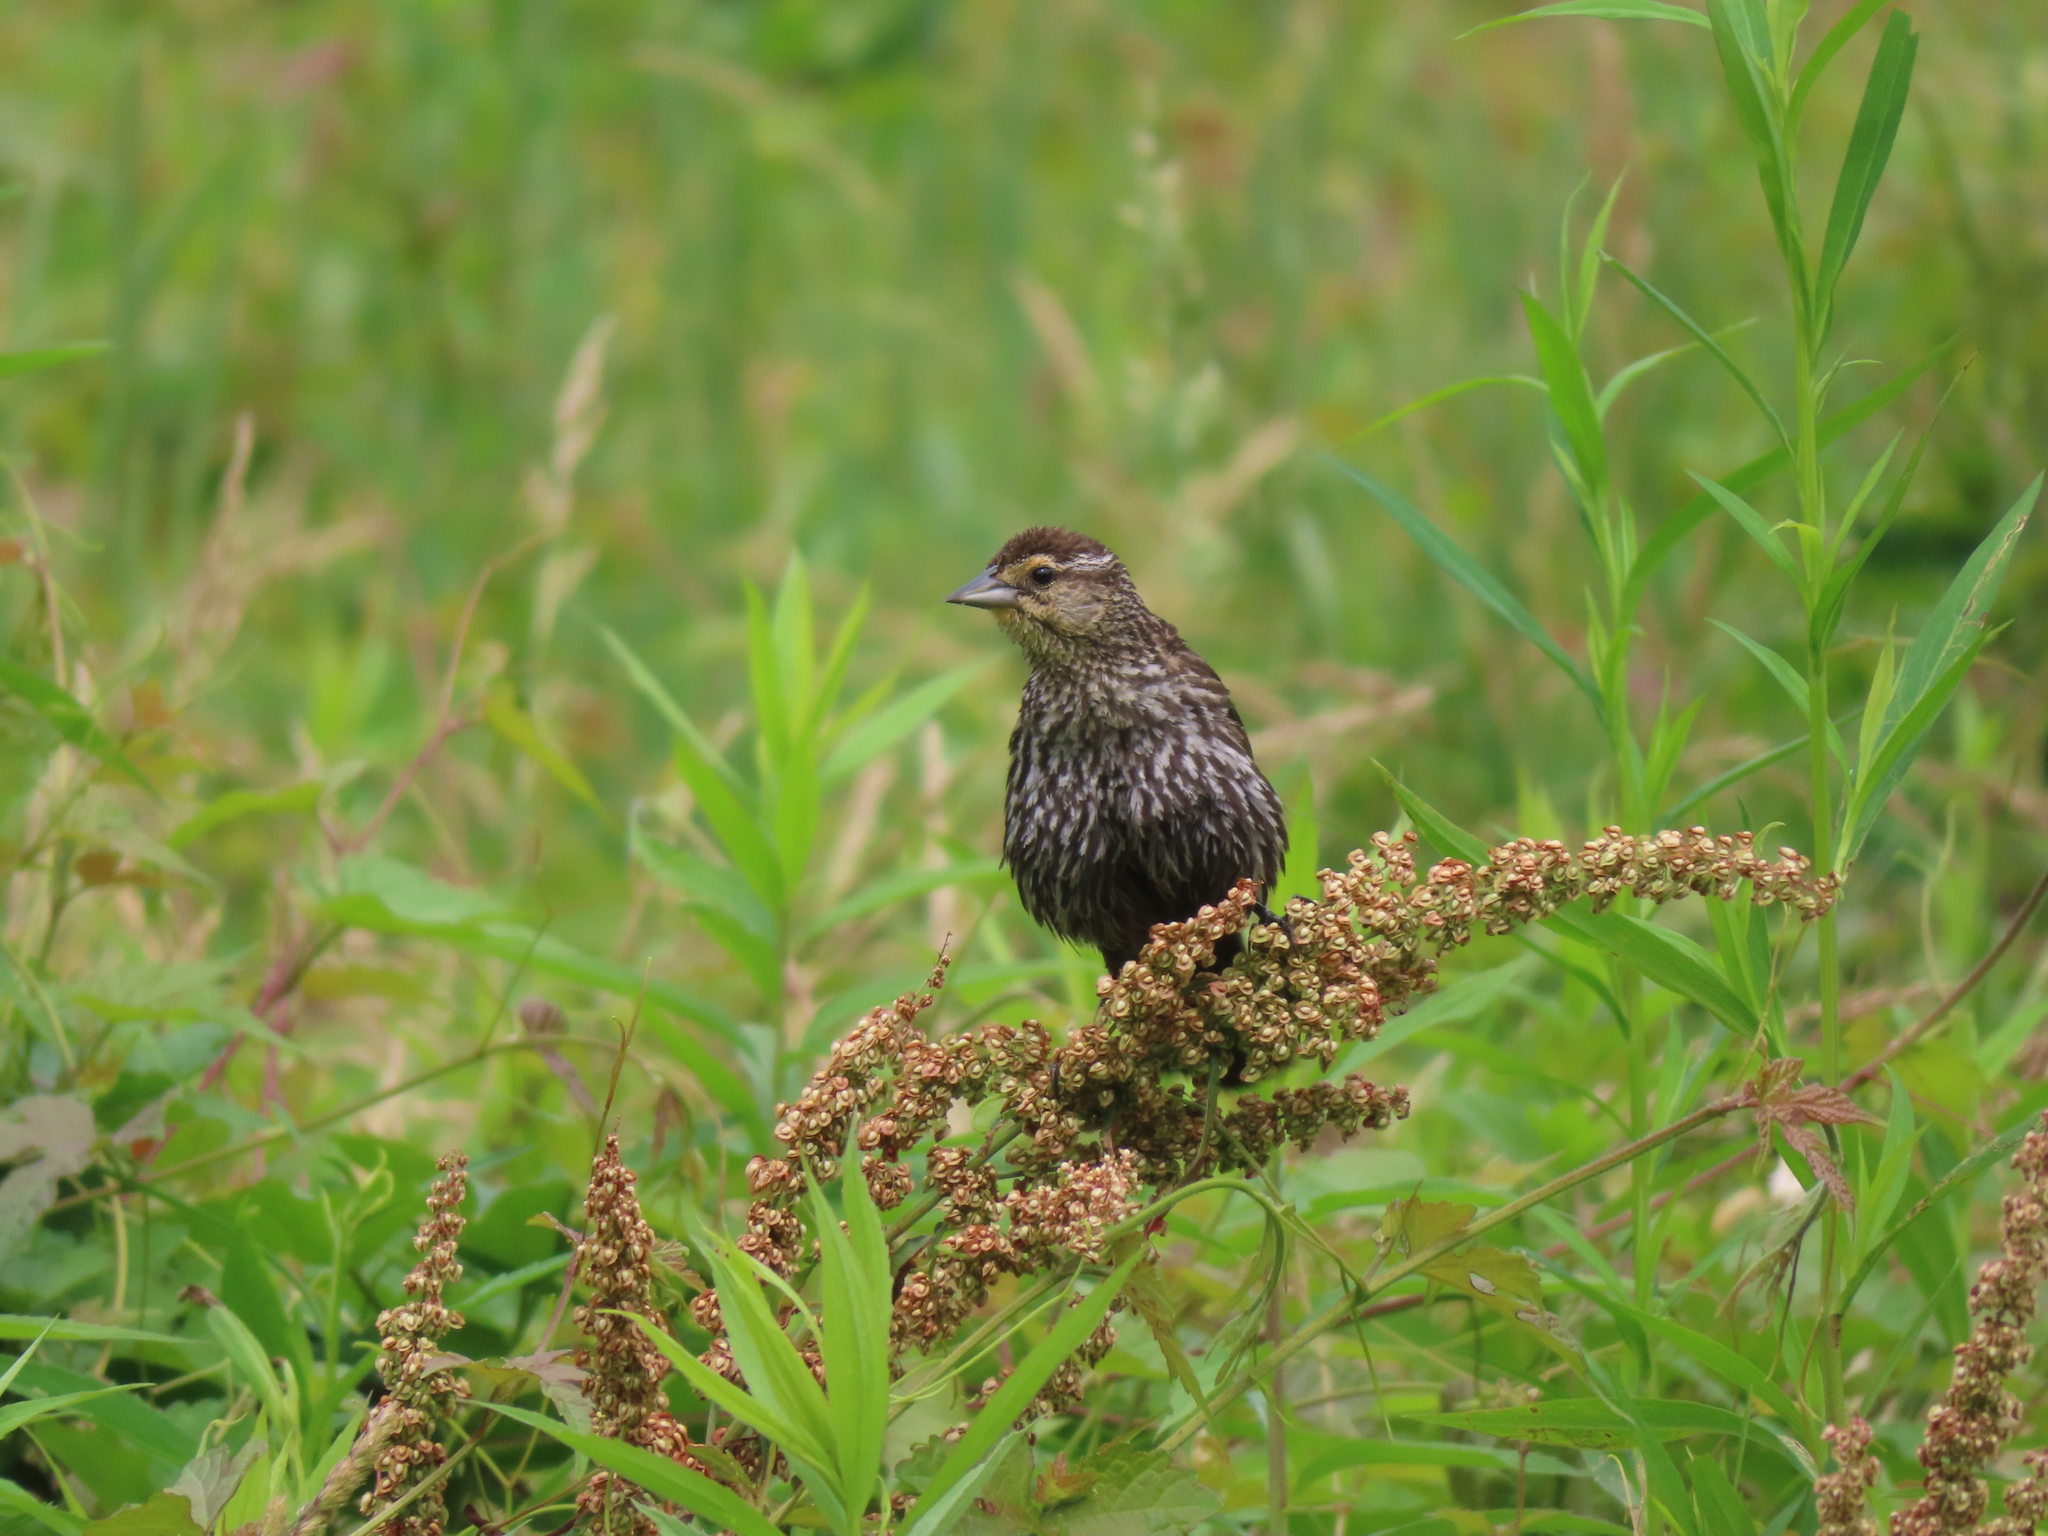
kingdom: Animalia
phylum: Chordata
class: Aves
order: Passeriformes
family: Icteridae
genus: Agelaius
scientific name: Agelaius phoeniceus
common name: Red-winged blackbird
